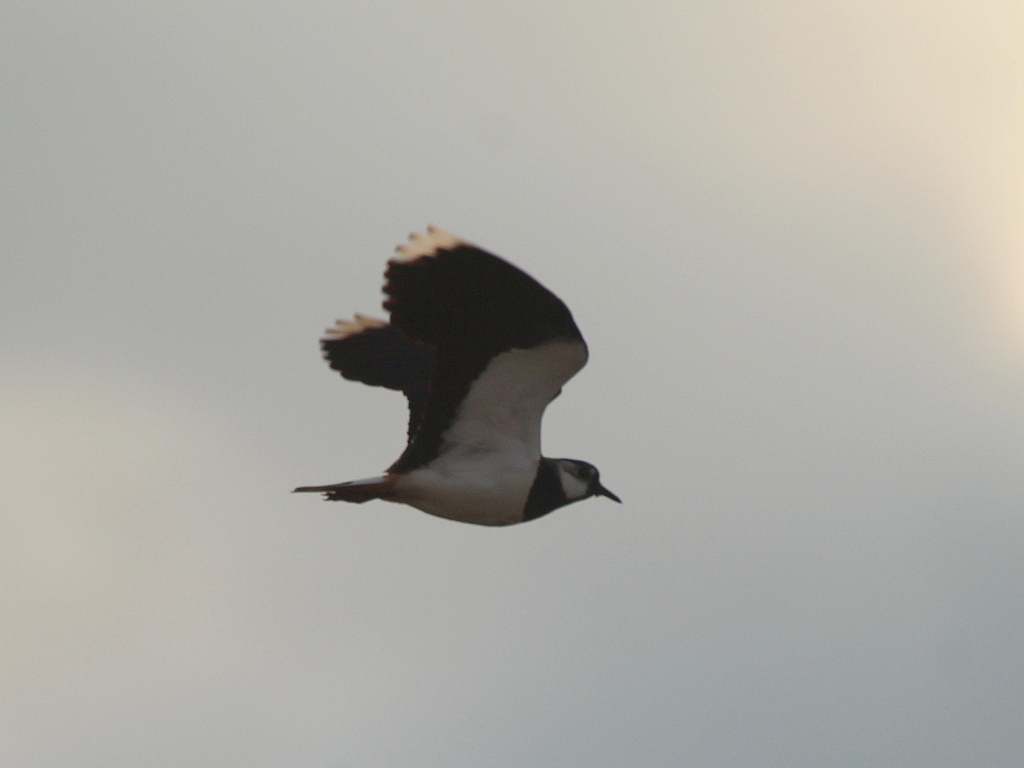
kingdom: Animalia
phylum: Chordata
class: Aves
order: Charadriiformes
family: Charadriidae
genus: Vanellus
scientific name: Vanellus vanellus
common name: Northern lapwing
